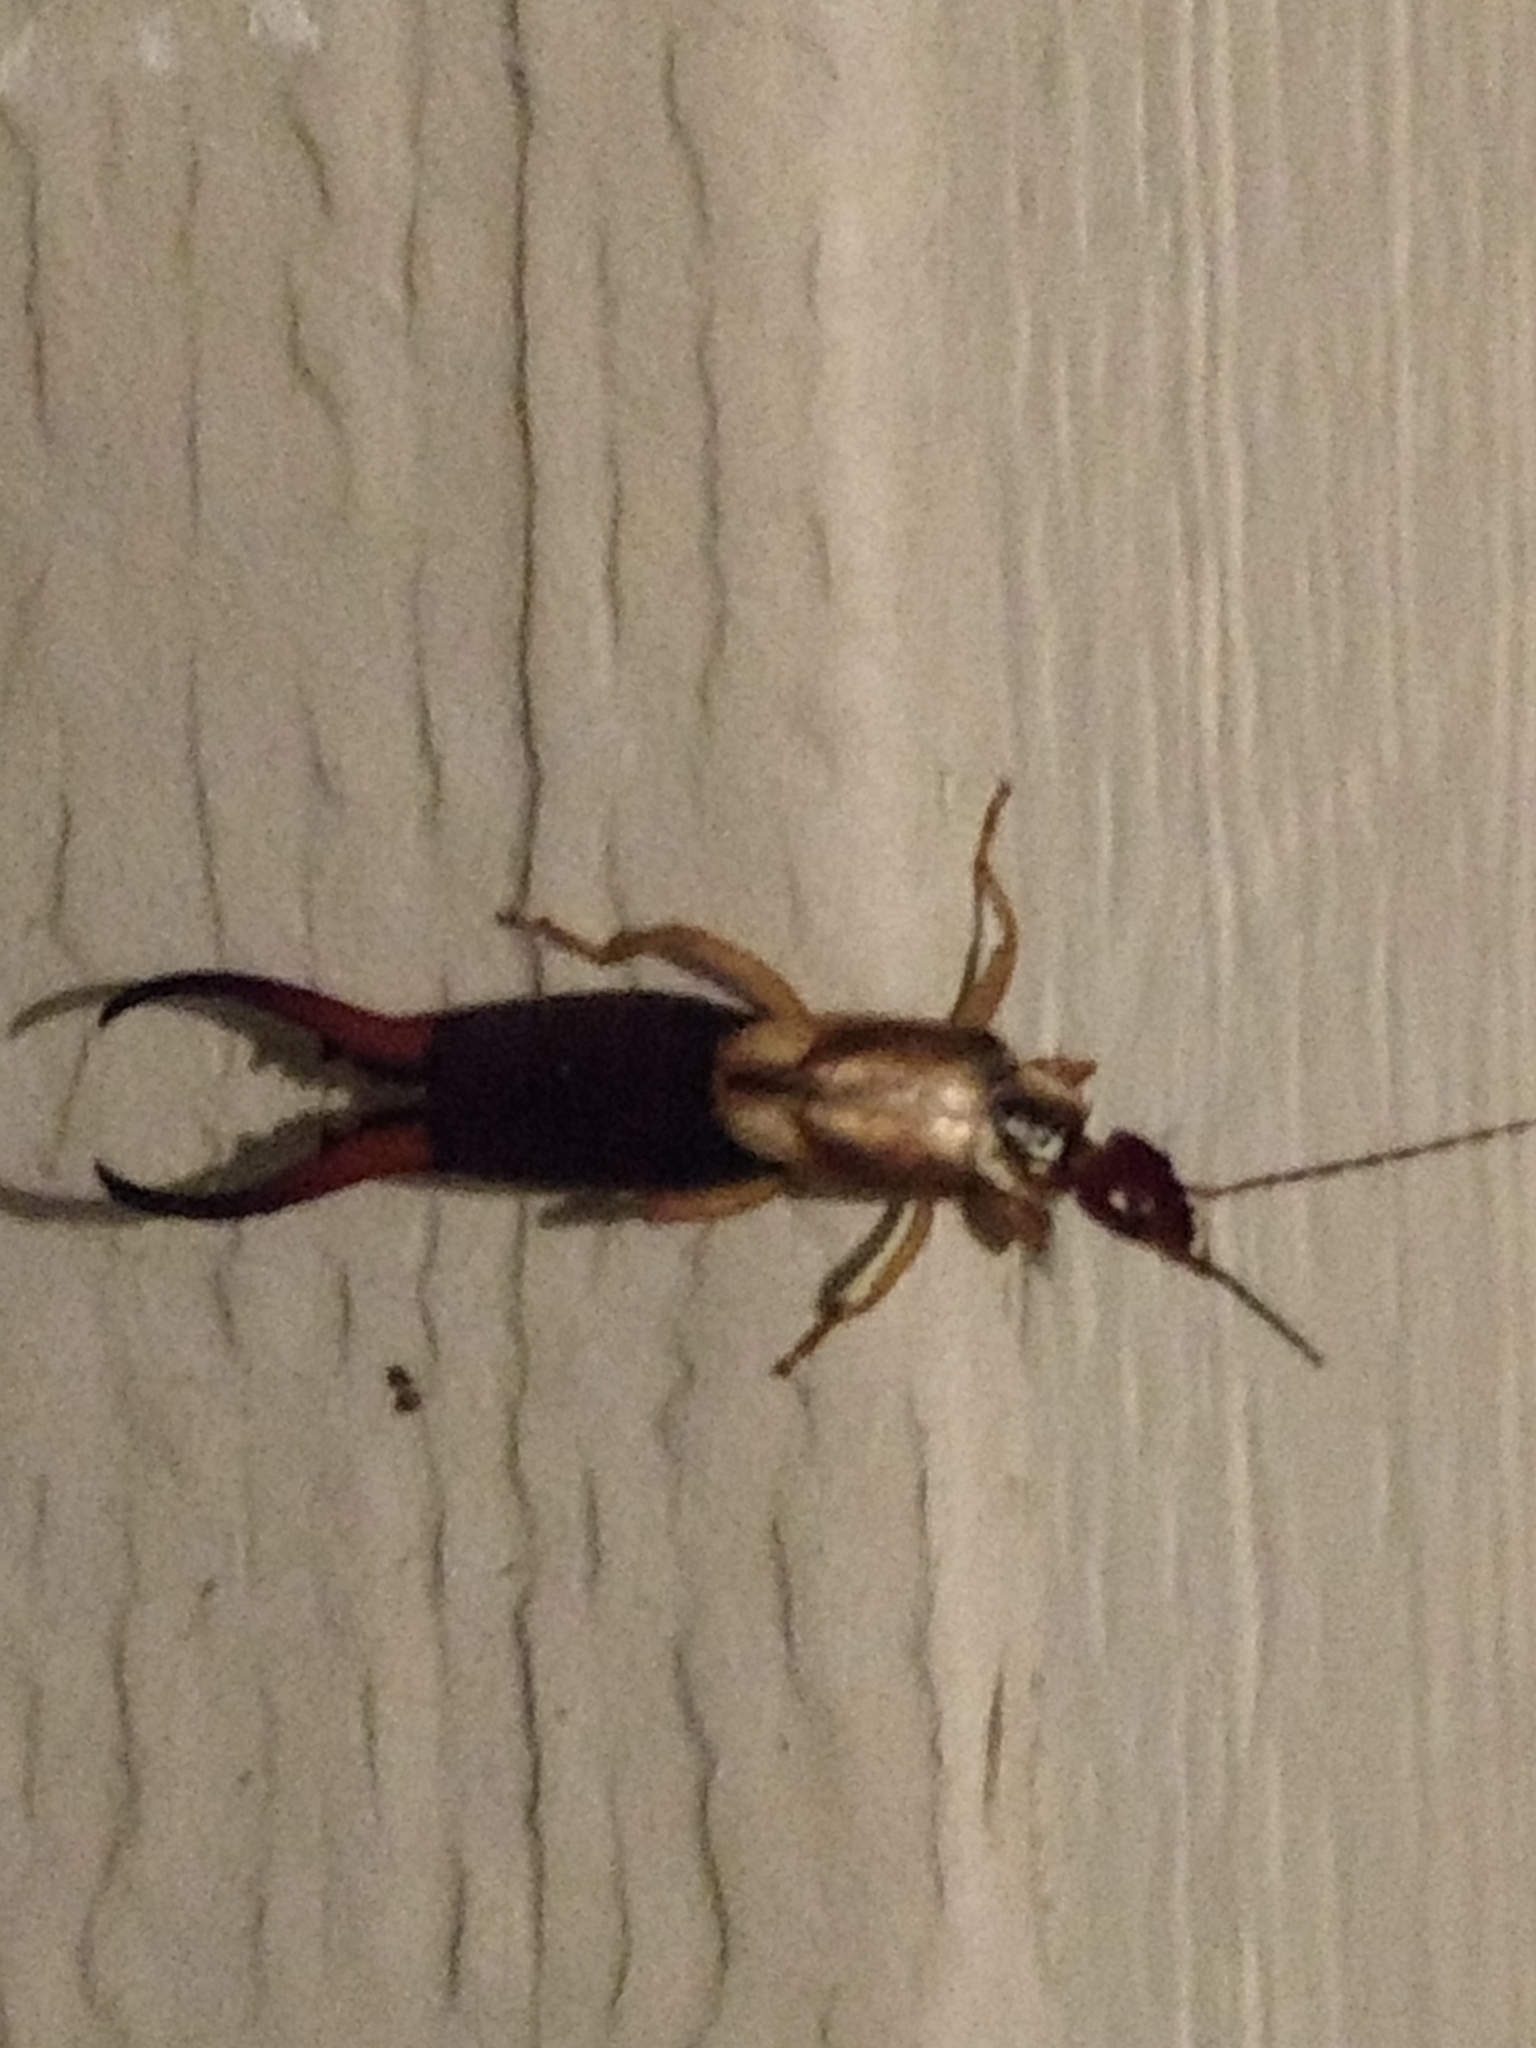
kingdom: Animalia
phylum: Arthropoda
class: Insecta
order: Dermaptera
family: Forficulidae
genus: Forficula
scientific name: Forficula
